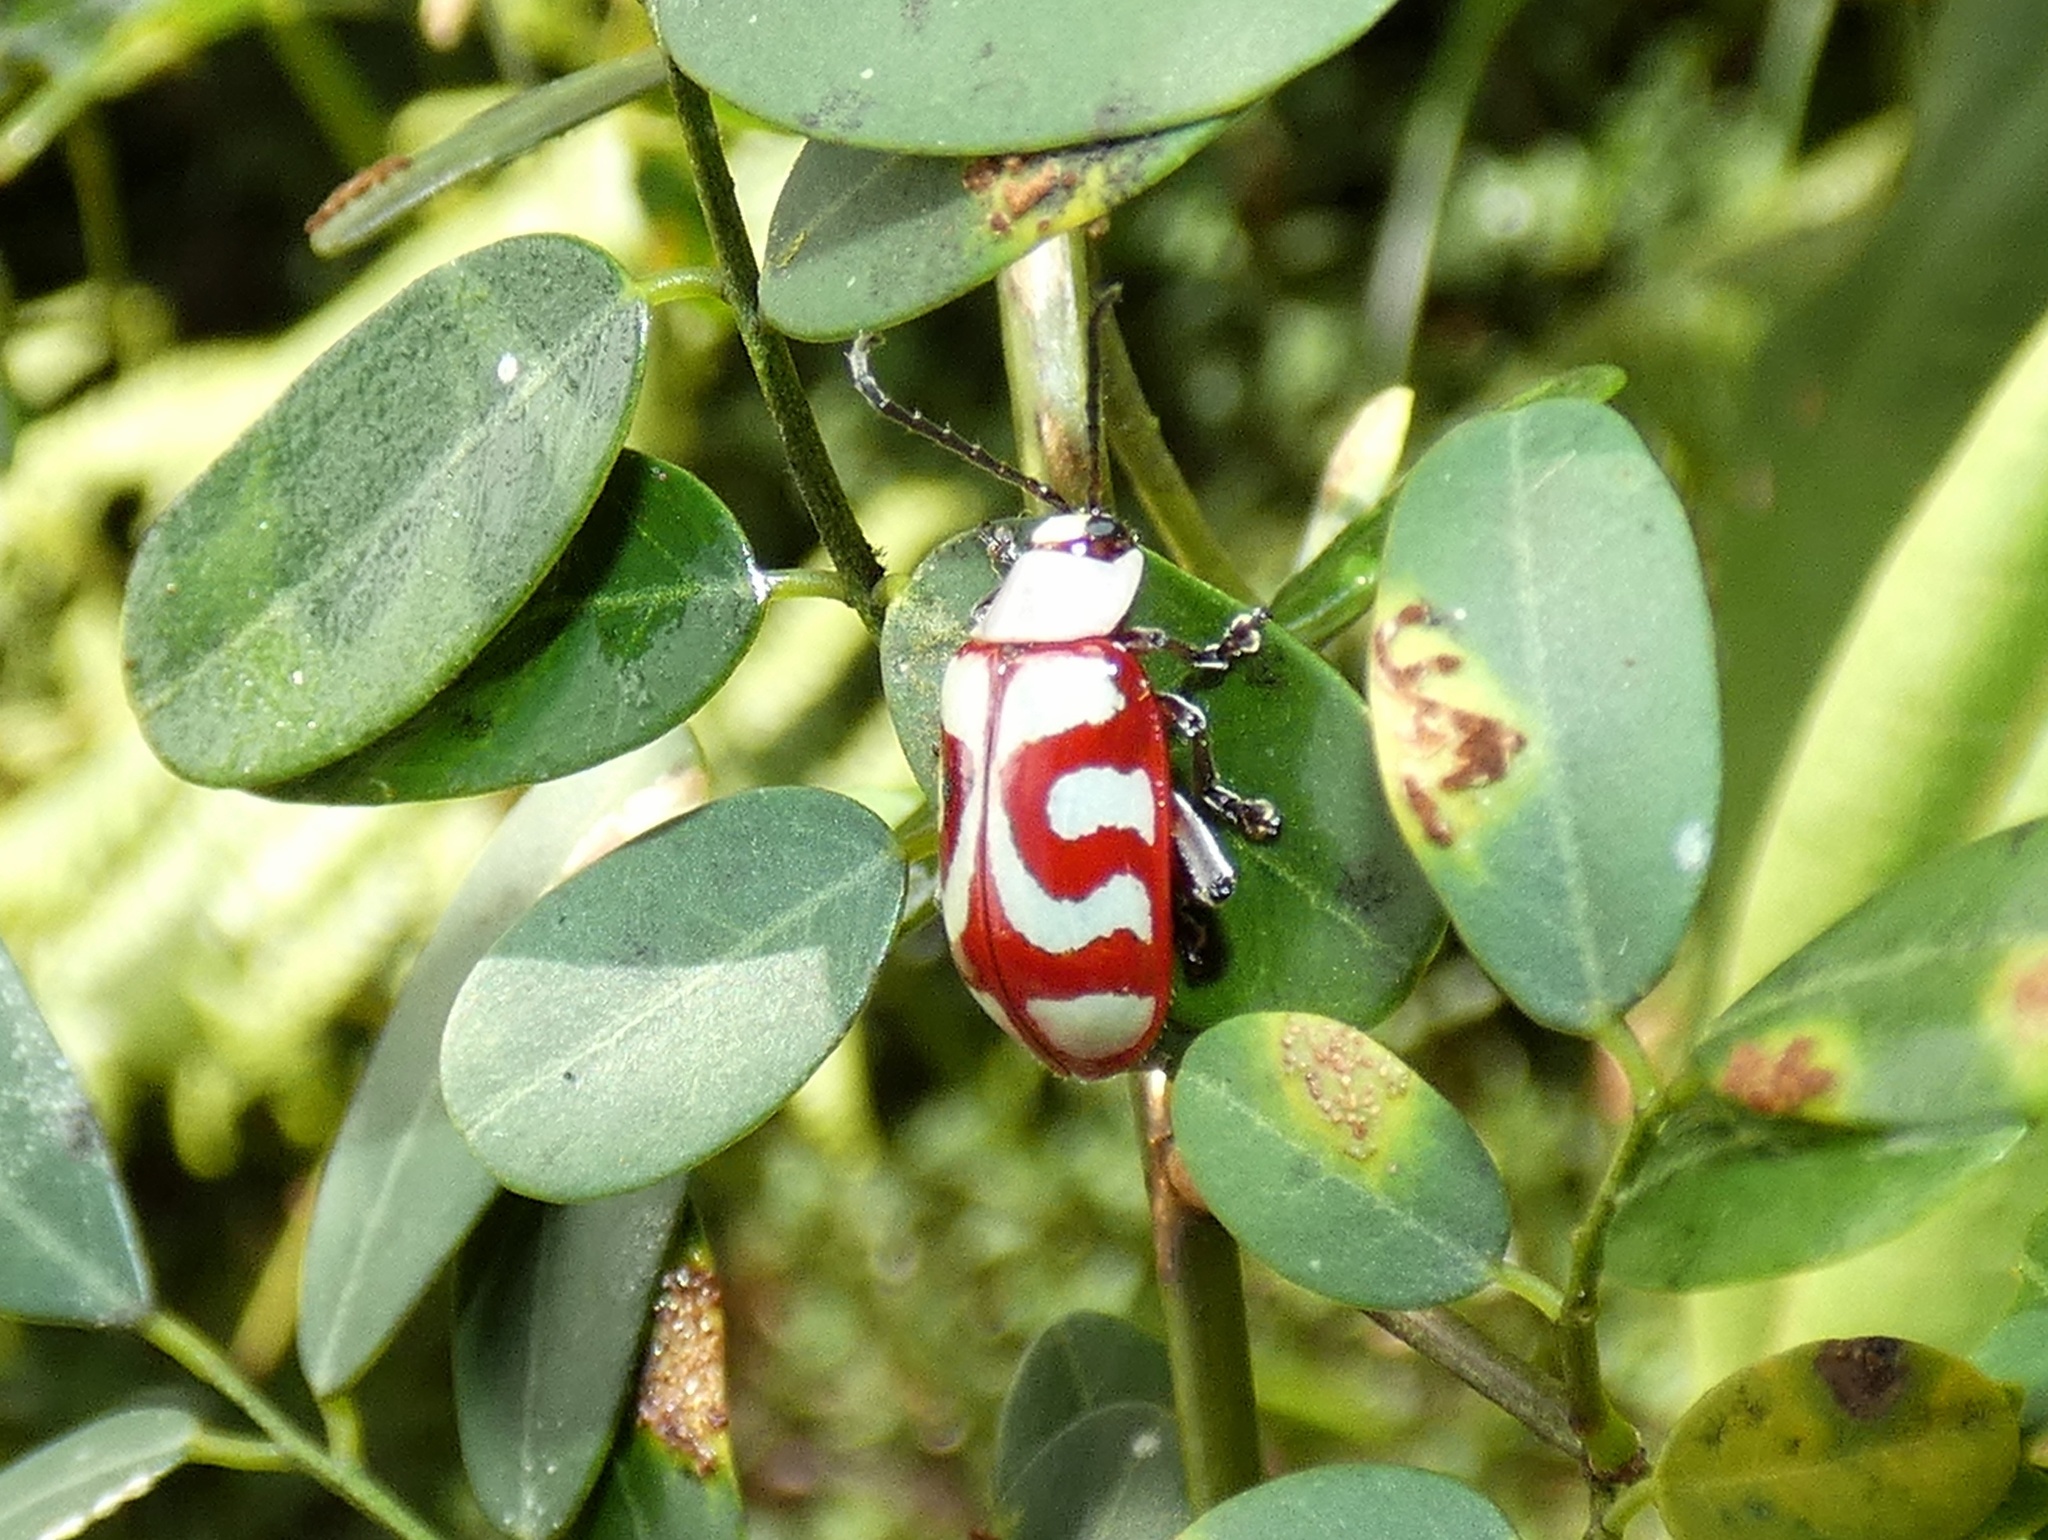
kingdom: Animalia
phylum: Arthropoda
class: Insecta
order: Coleoptera
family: Chrysomelidae
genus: Omophoita
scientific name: Omophoita
